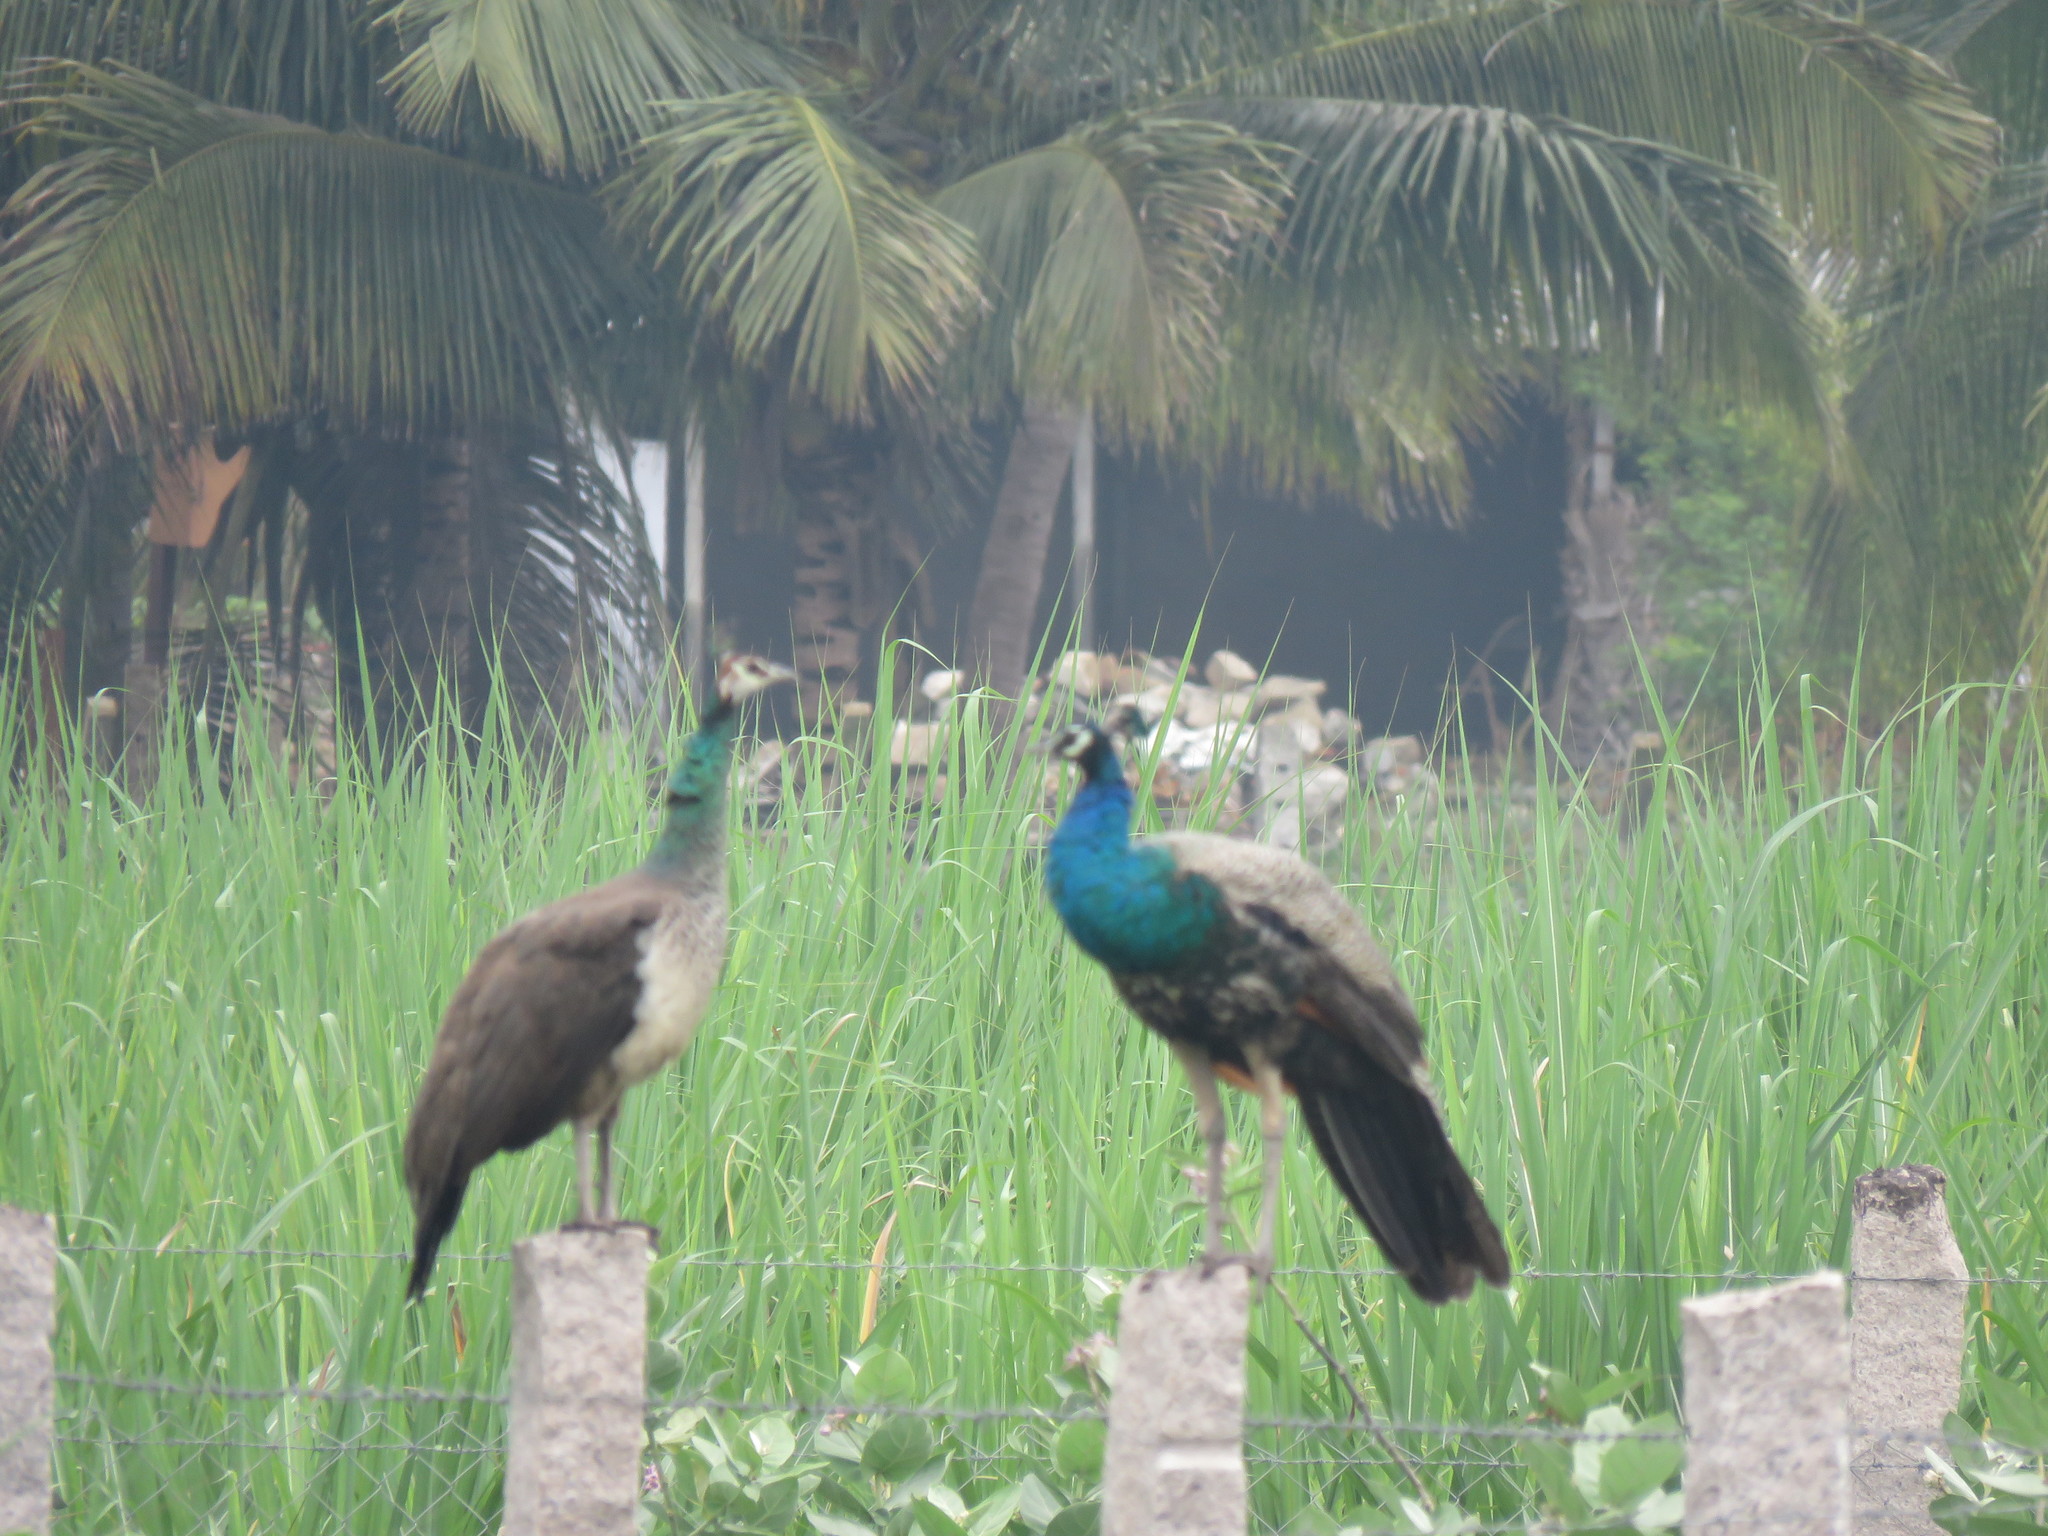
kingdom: Animalia
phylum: Chordata
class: Aves
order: Galliformes
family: Phasianidae
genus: Pavo
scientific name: Pavo cristatus
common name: Indian peafowl
